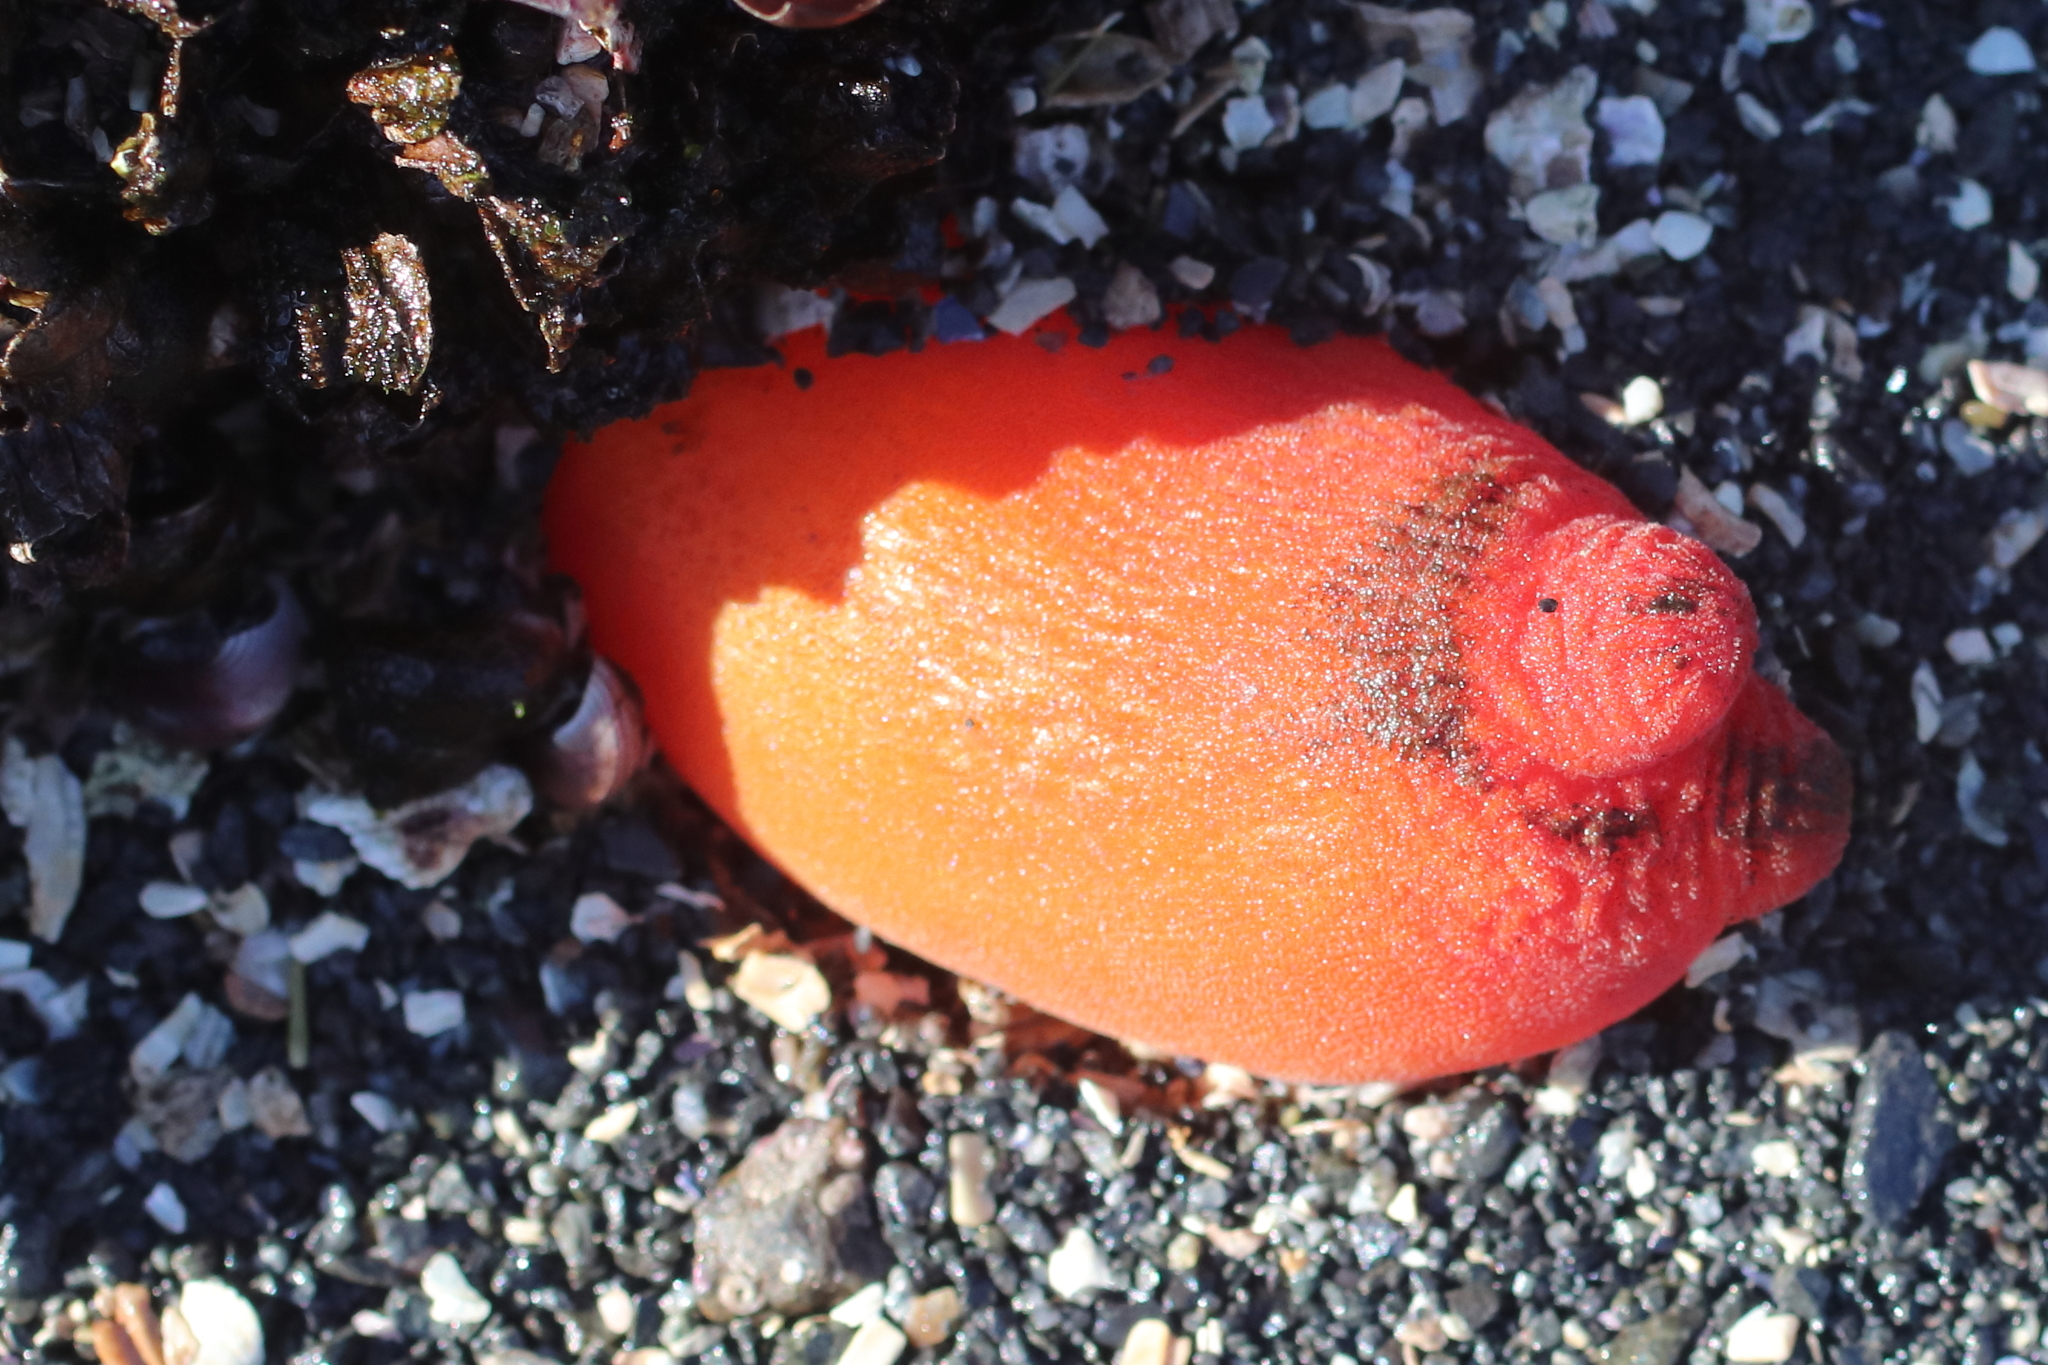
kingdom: Animalia
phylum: Chordata
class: Ascidiacea
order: Stolidobranchia
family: Pyuridae
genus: Halocynthia
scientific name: Halocynthia aurantium
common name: Sea peach
